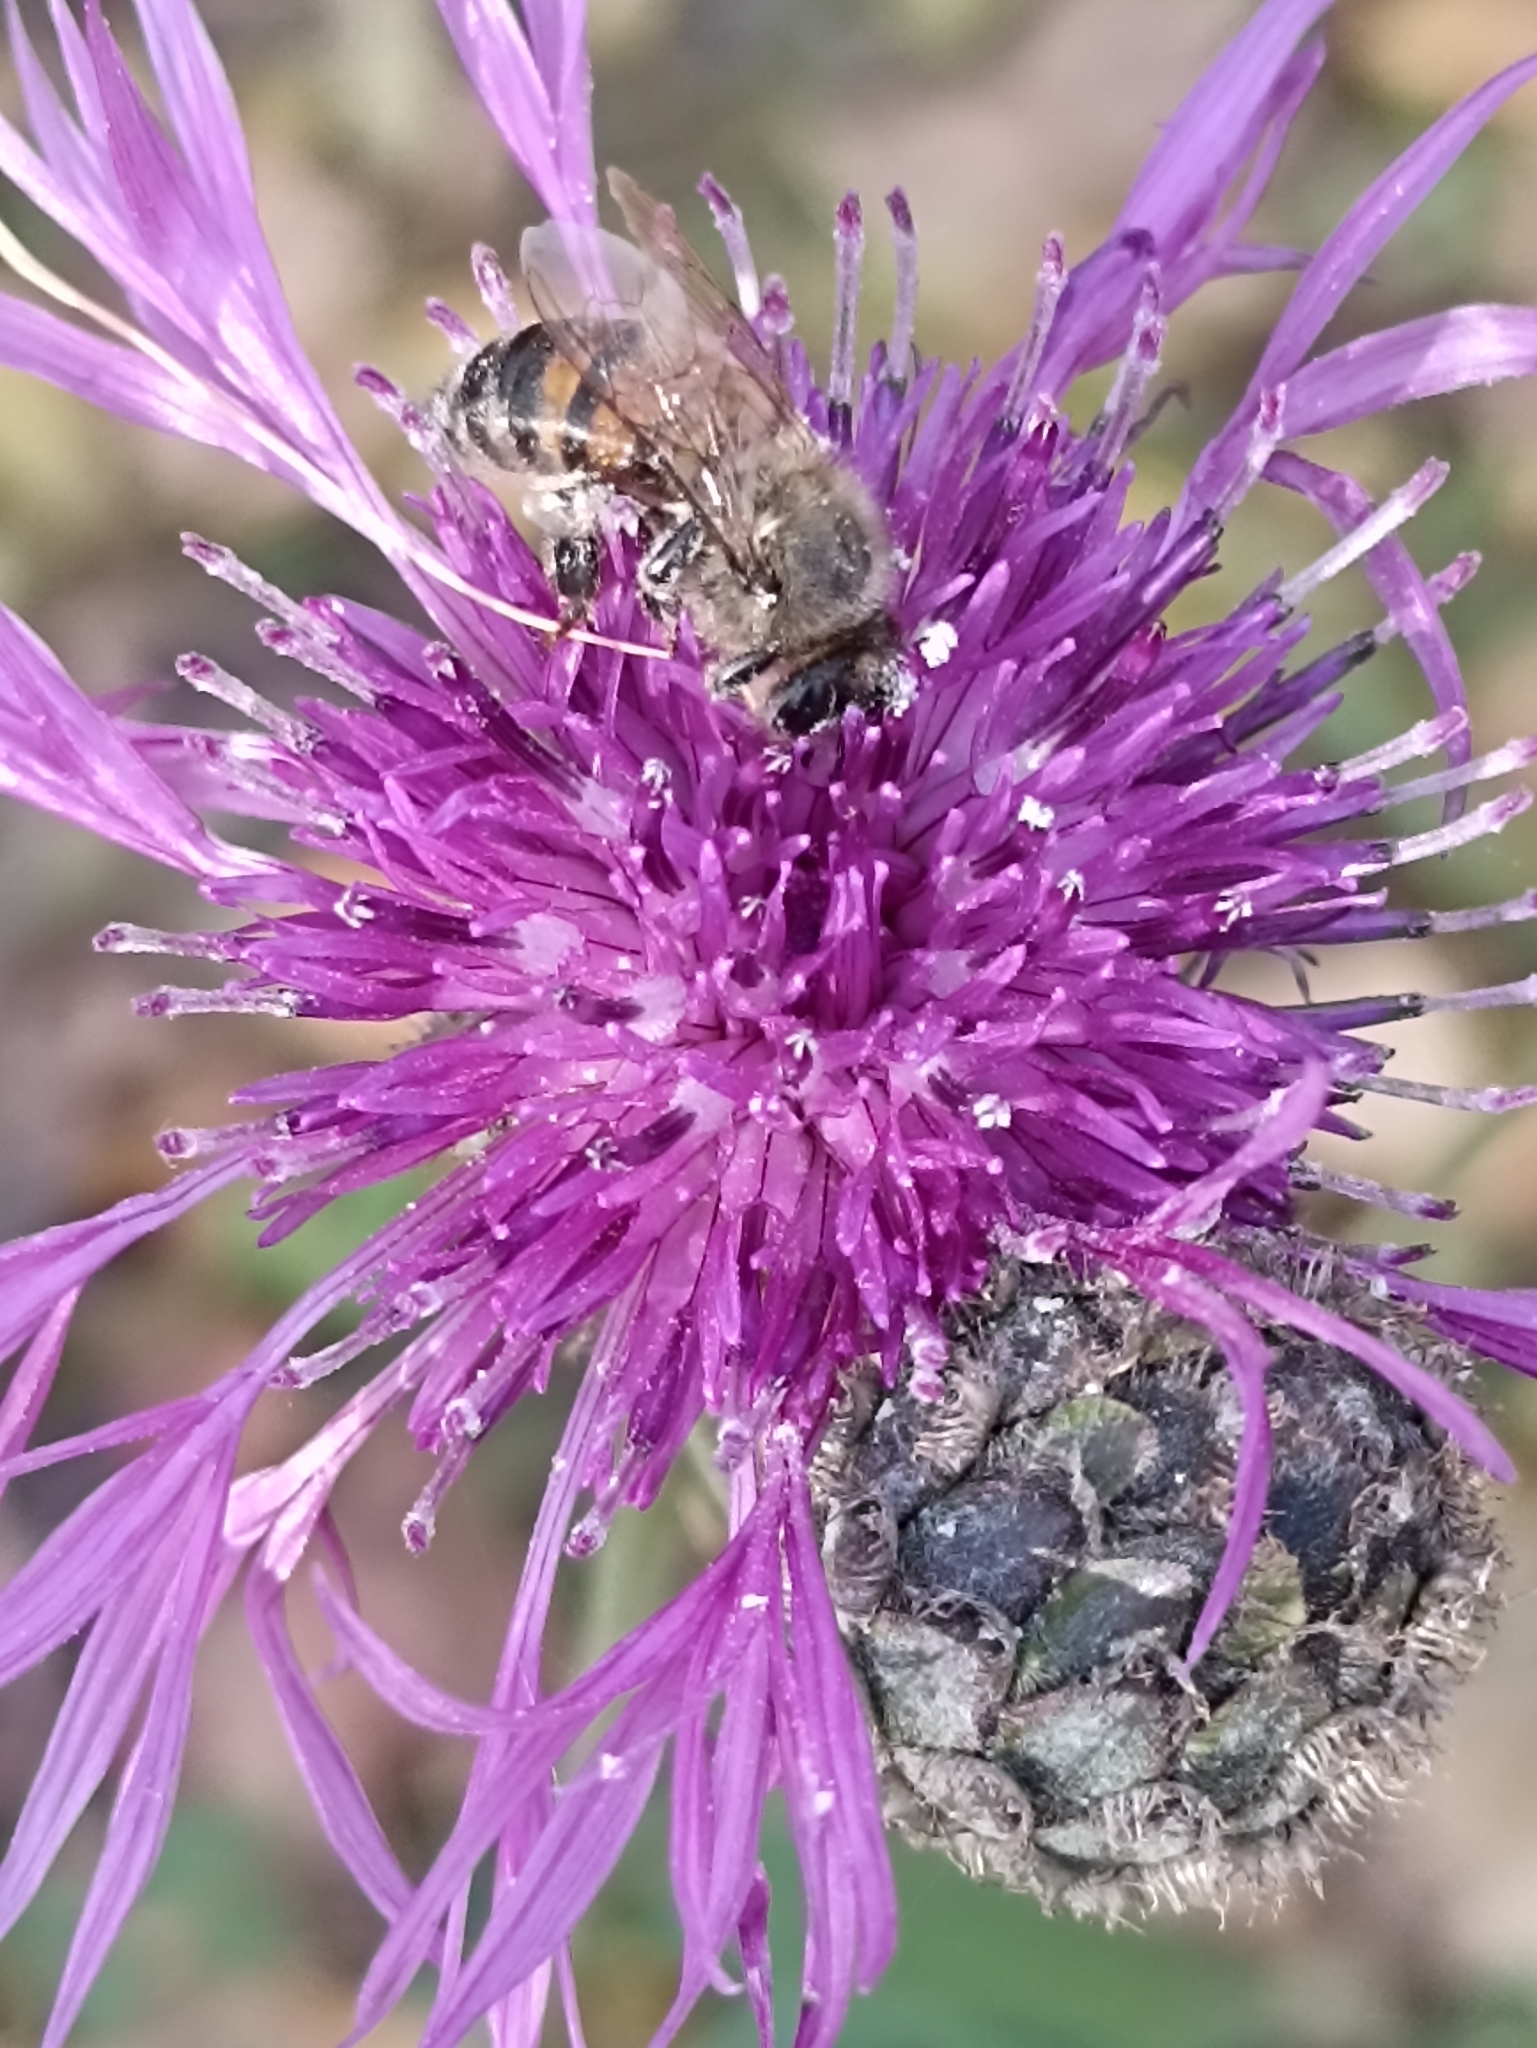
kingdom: Animalia
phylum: Arthropoda
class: Insecta
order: Hymenoptera
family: Apidae
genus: Apis
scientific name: Apis mellifera
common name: Honey bee
